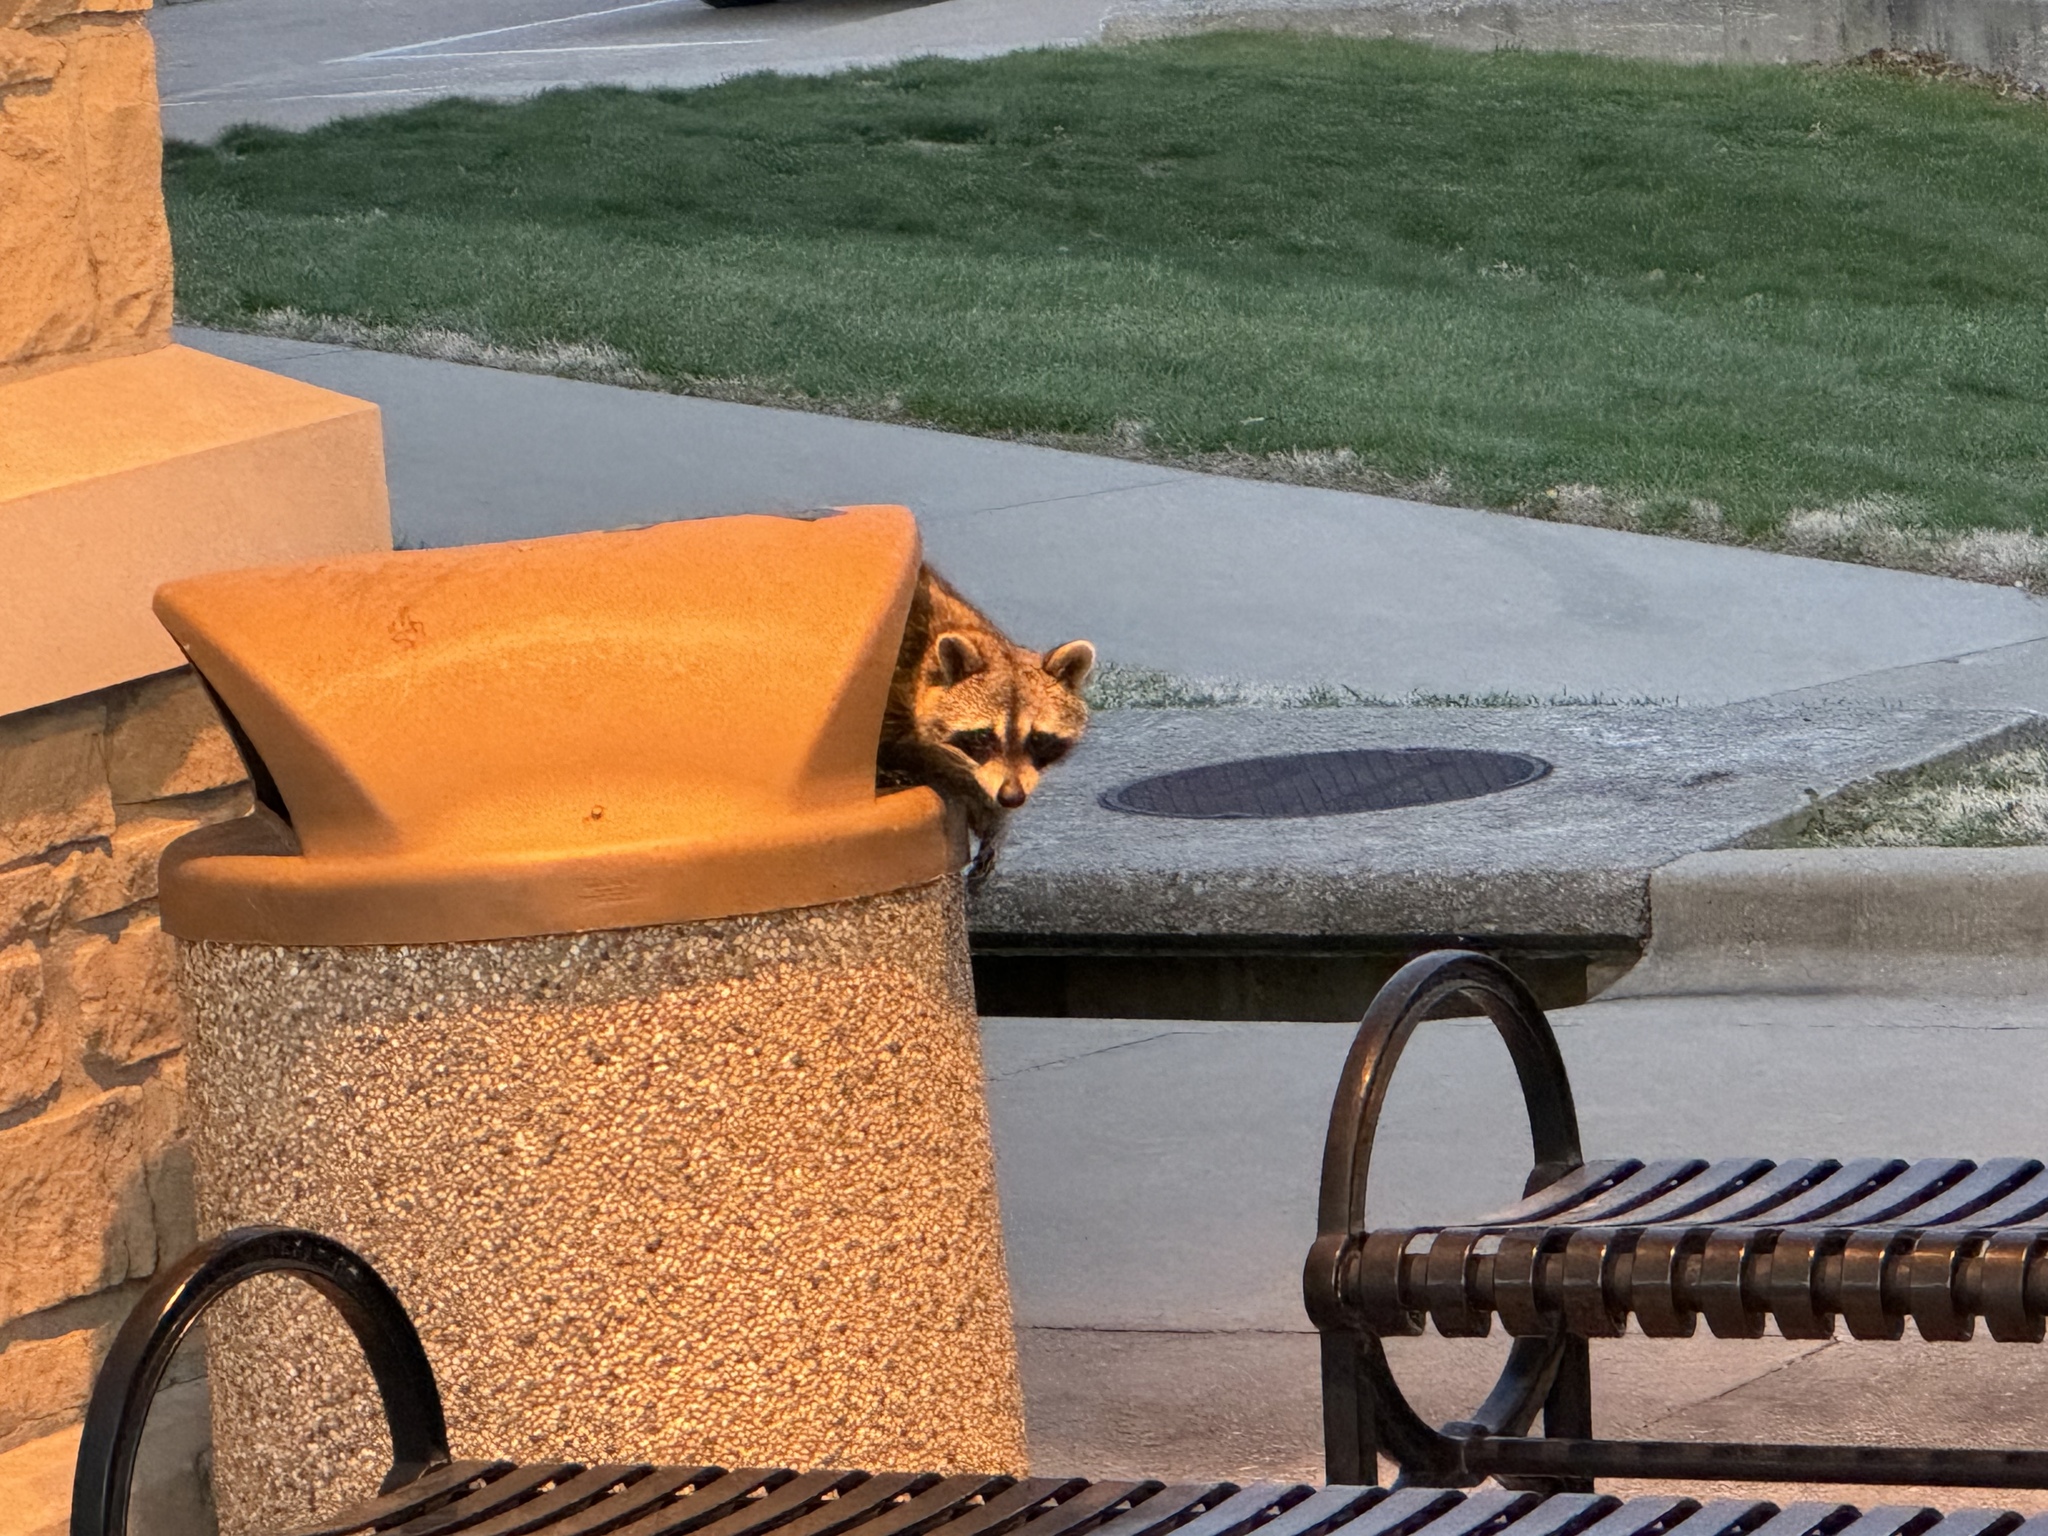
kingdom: Animalia
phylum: Chordata
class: Mammalia
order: Carnivora
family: Procyonidae
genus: Procyon
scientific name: Procyon lotor
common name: Raccoon
